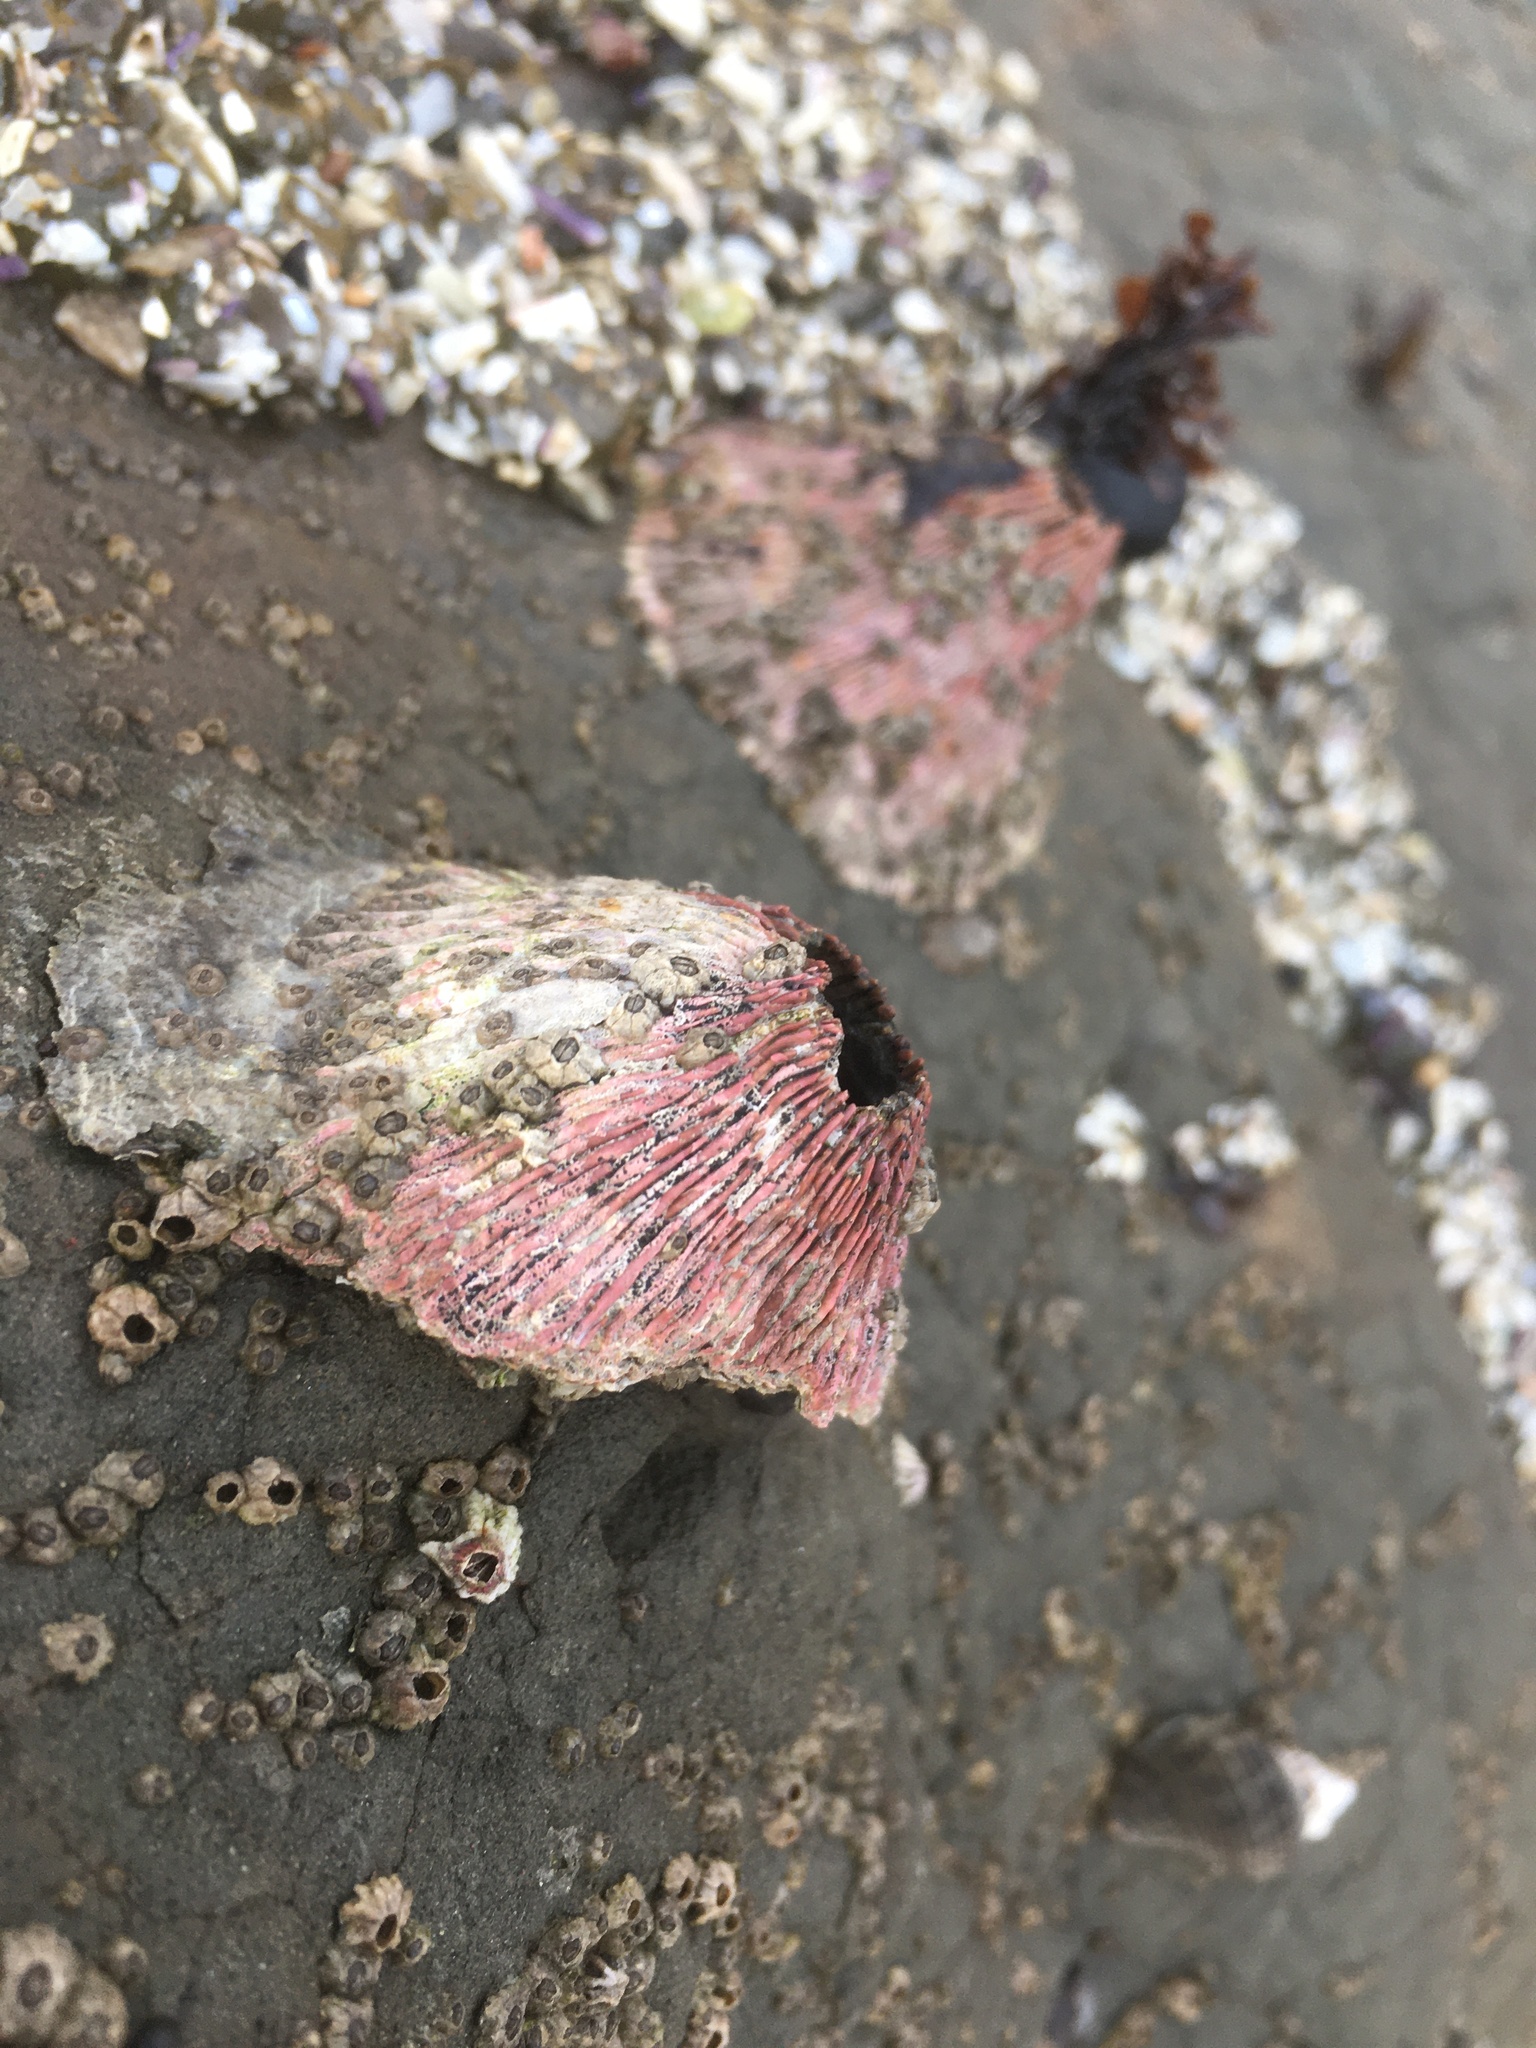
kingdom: Animalia
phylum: Arthropoda
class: Maxillopoda
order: Sessilia
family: Tetraclitidae
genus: Tetraclita
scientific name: Tetraclita rubescens
